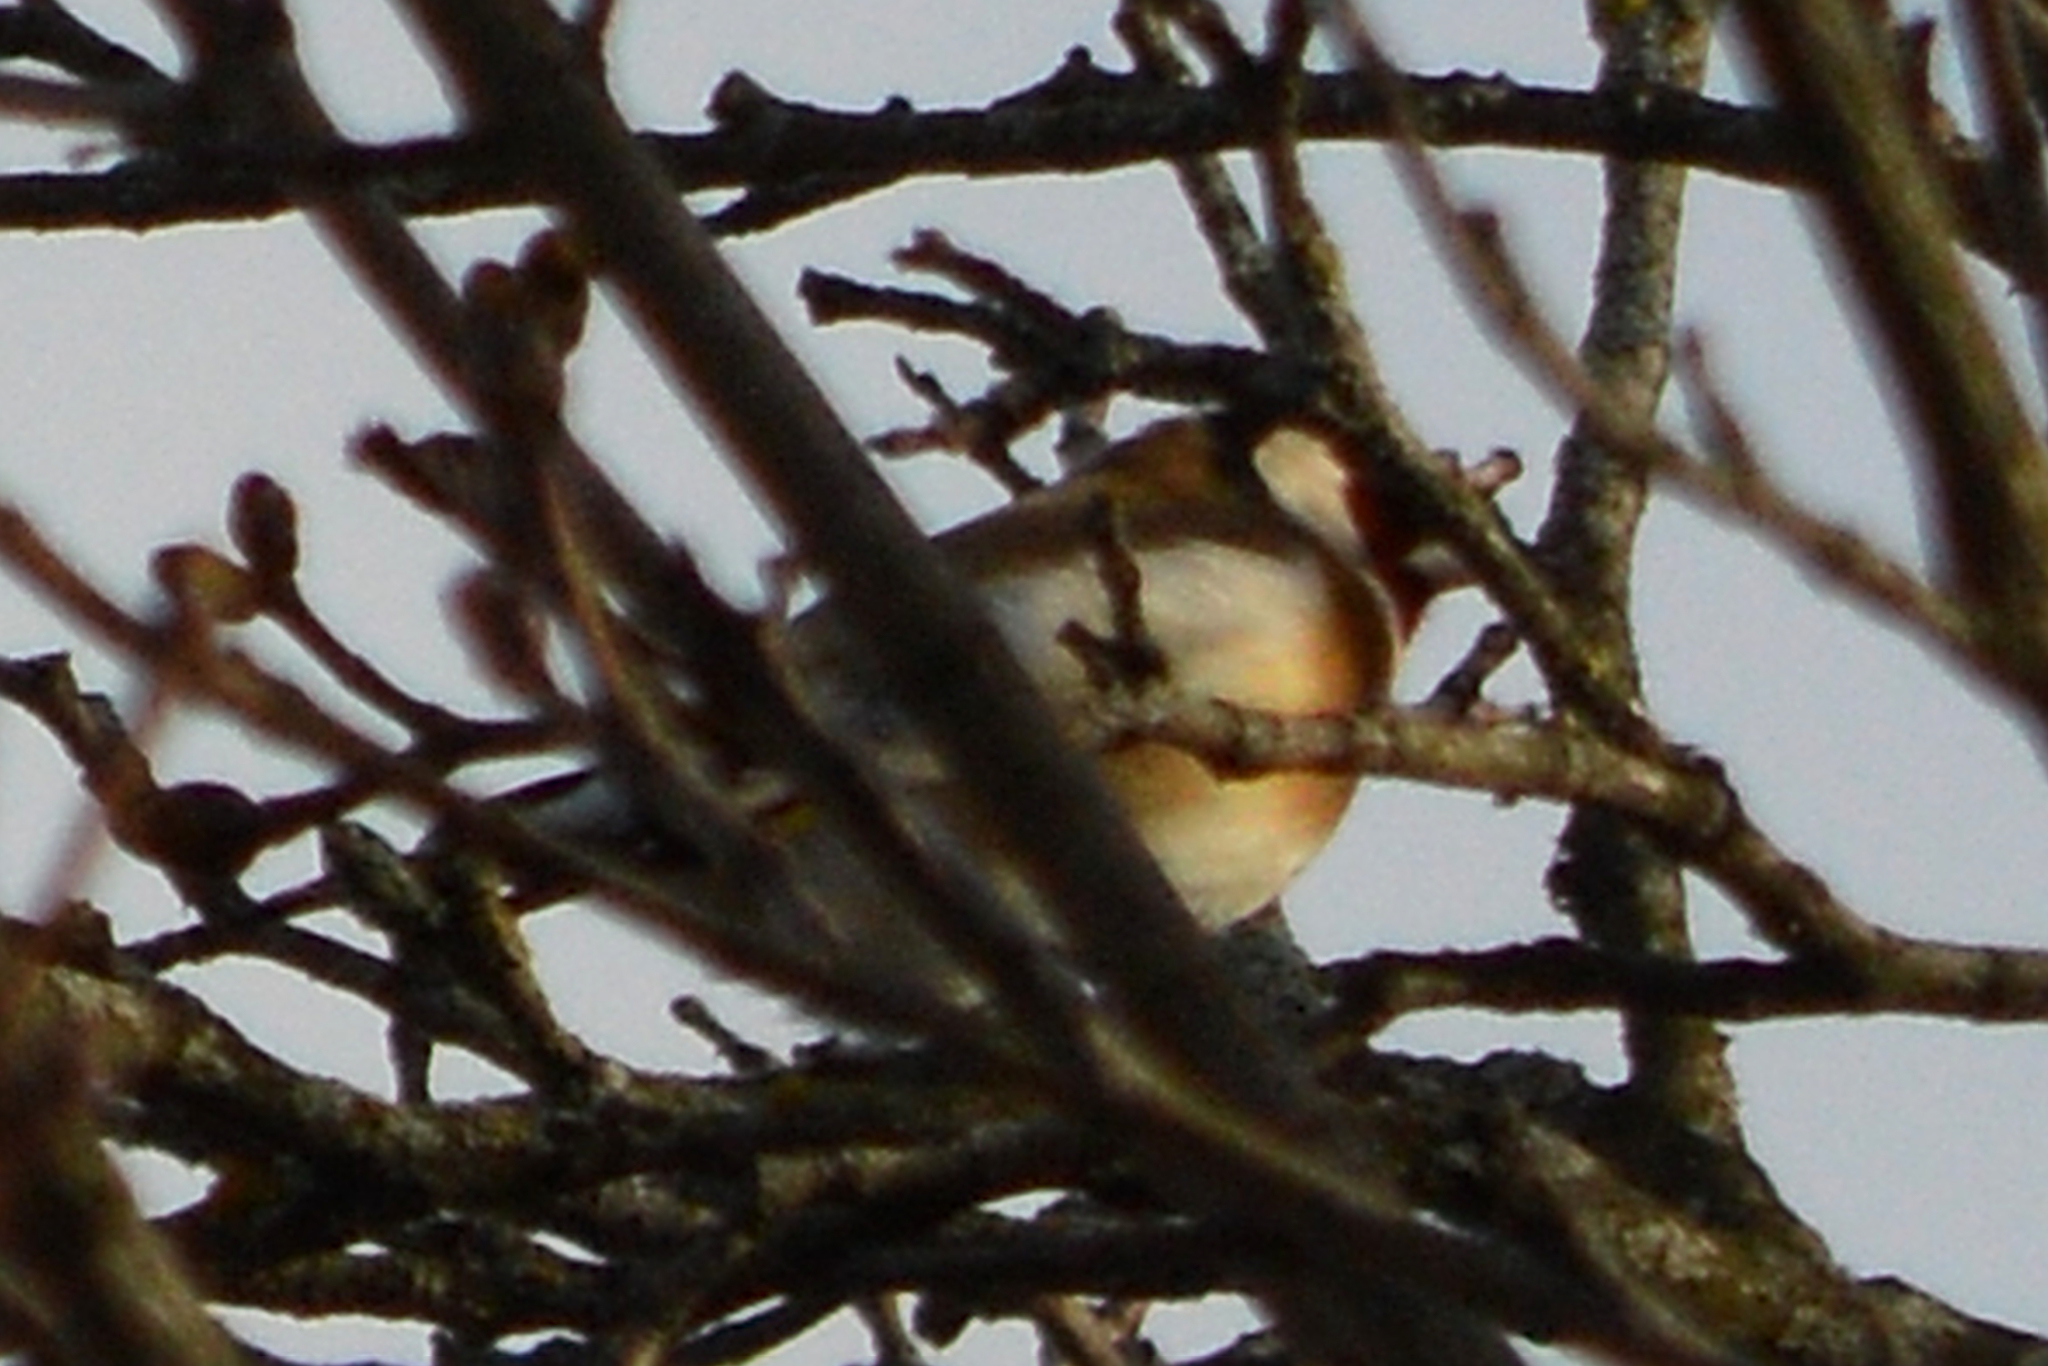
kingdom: Animalia
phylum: Chordata
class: Aves
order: Passeriformes
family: Fringillidae
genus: Carduelis
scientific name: Carduelis carduelis
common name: European goldfinch
